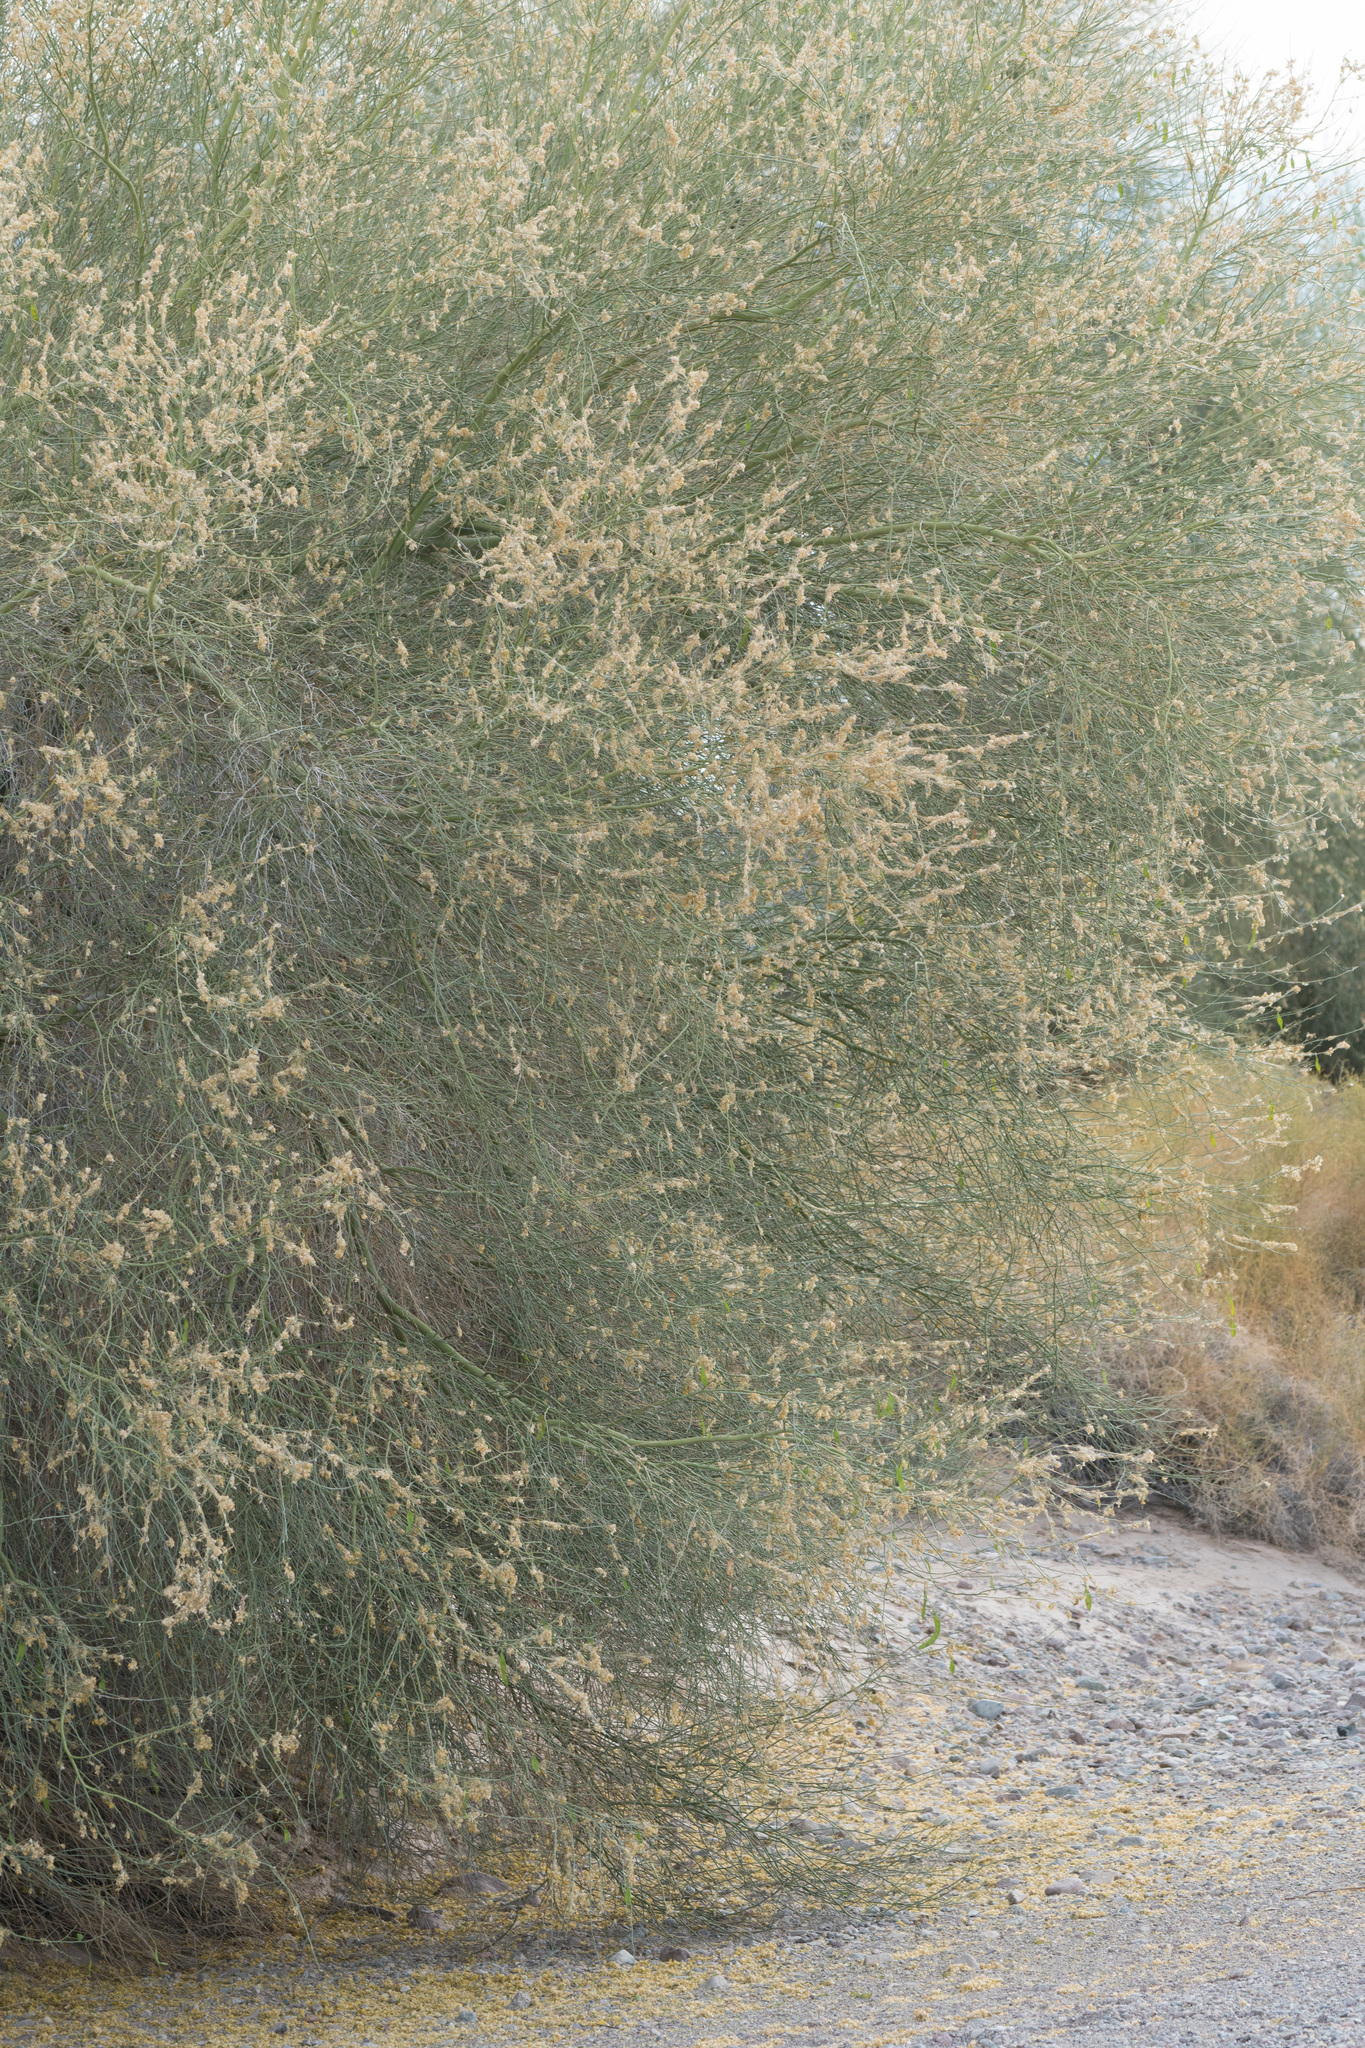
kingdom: Plantae
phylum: Tracheophyta
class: Magnoliopsida
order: Fabales
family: Fabaceae
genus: Parkinsonia
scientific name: Parkinsonia florida
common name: Blue paloverde
